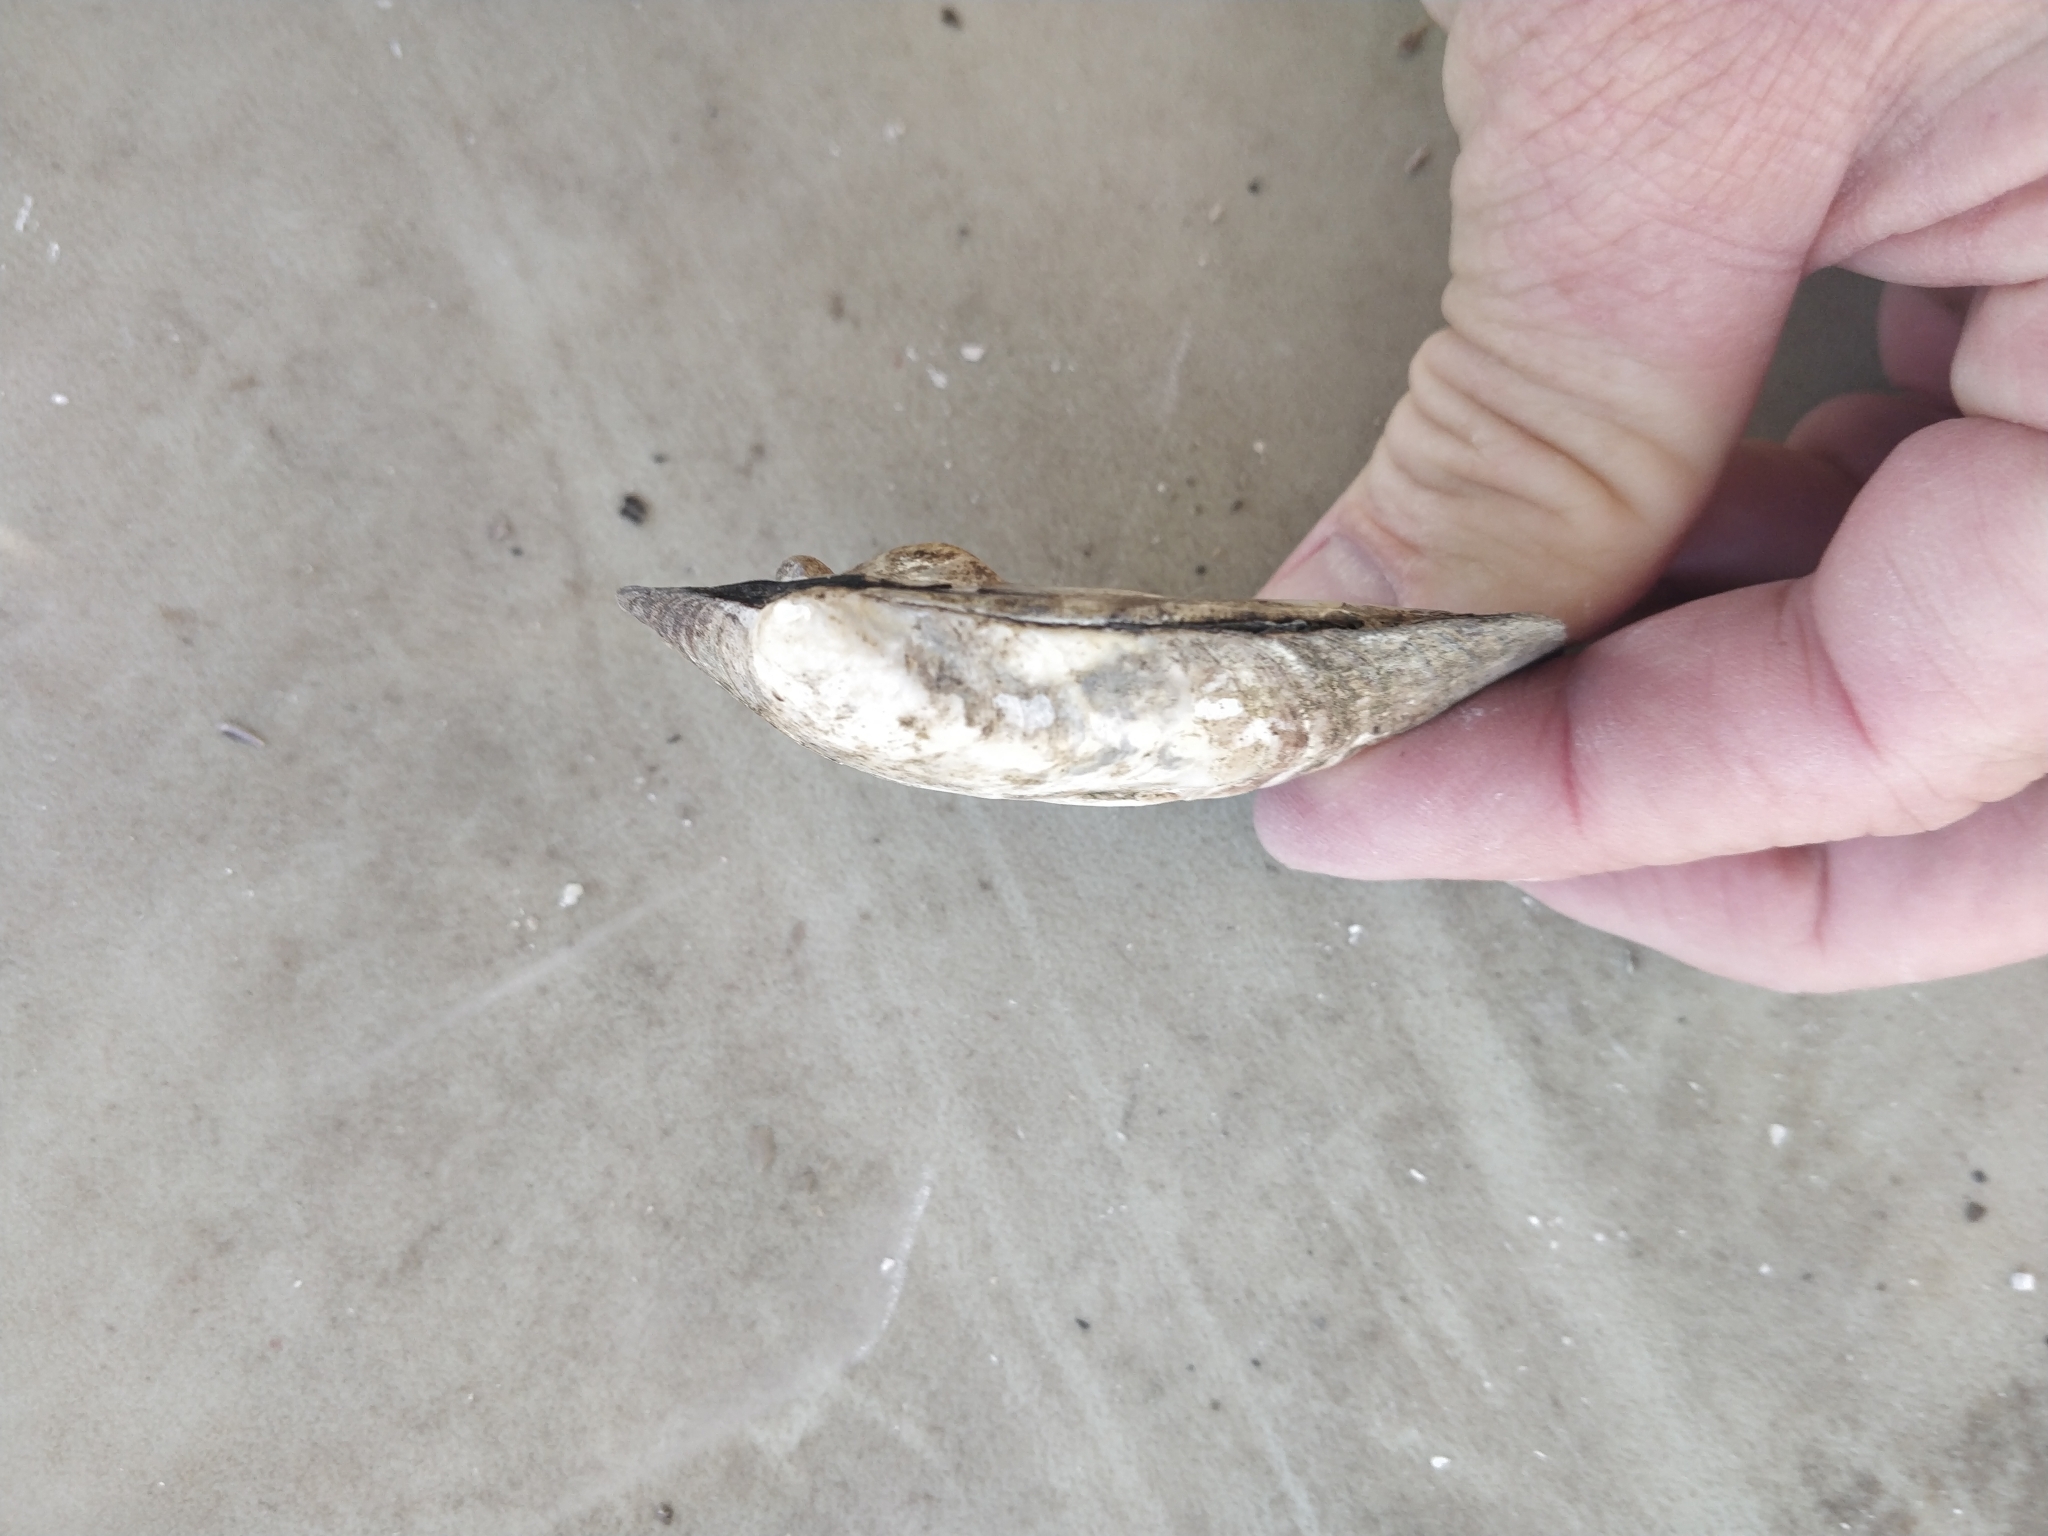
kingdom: Animalia
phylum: Mollusca
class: Bivalvia
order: Unionida
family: Unionidae
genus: Amblema
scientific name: Amblema plicata
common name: Threeridge
